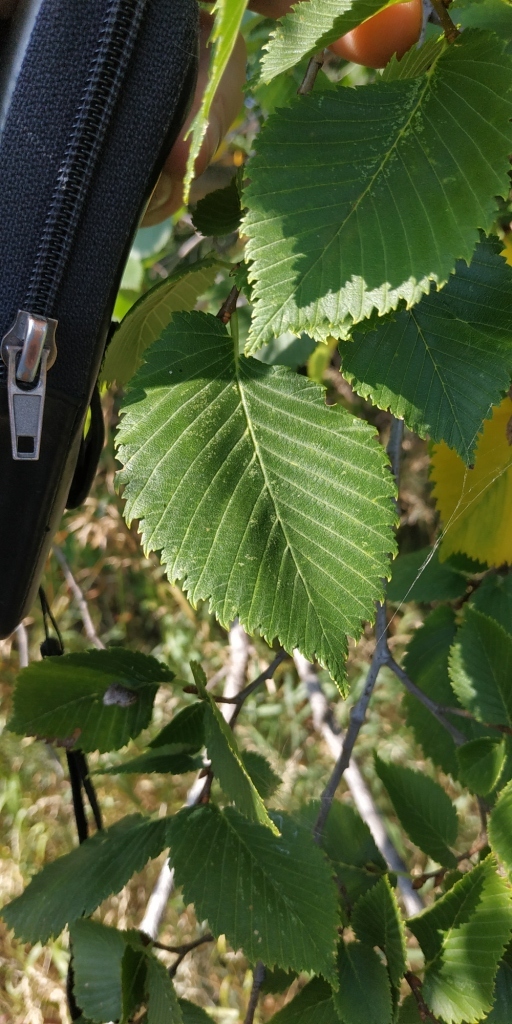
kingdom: Plantae
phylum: Tracheophyta
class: Magnoliopsida
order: Rosales
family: Ulmaceae
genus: Ulmus
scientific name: Ulmus laevis
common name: European white-elm
